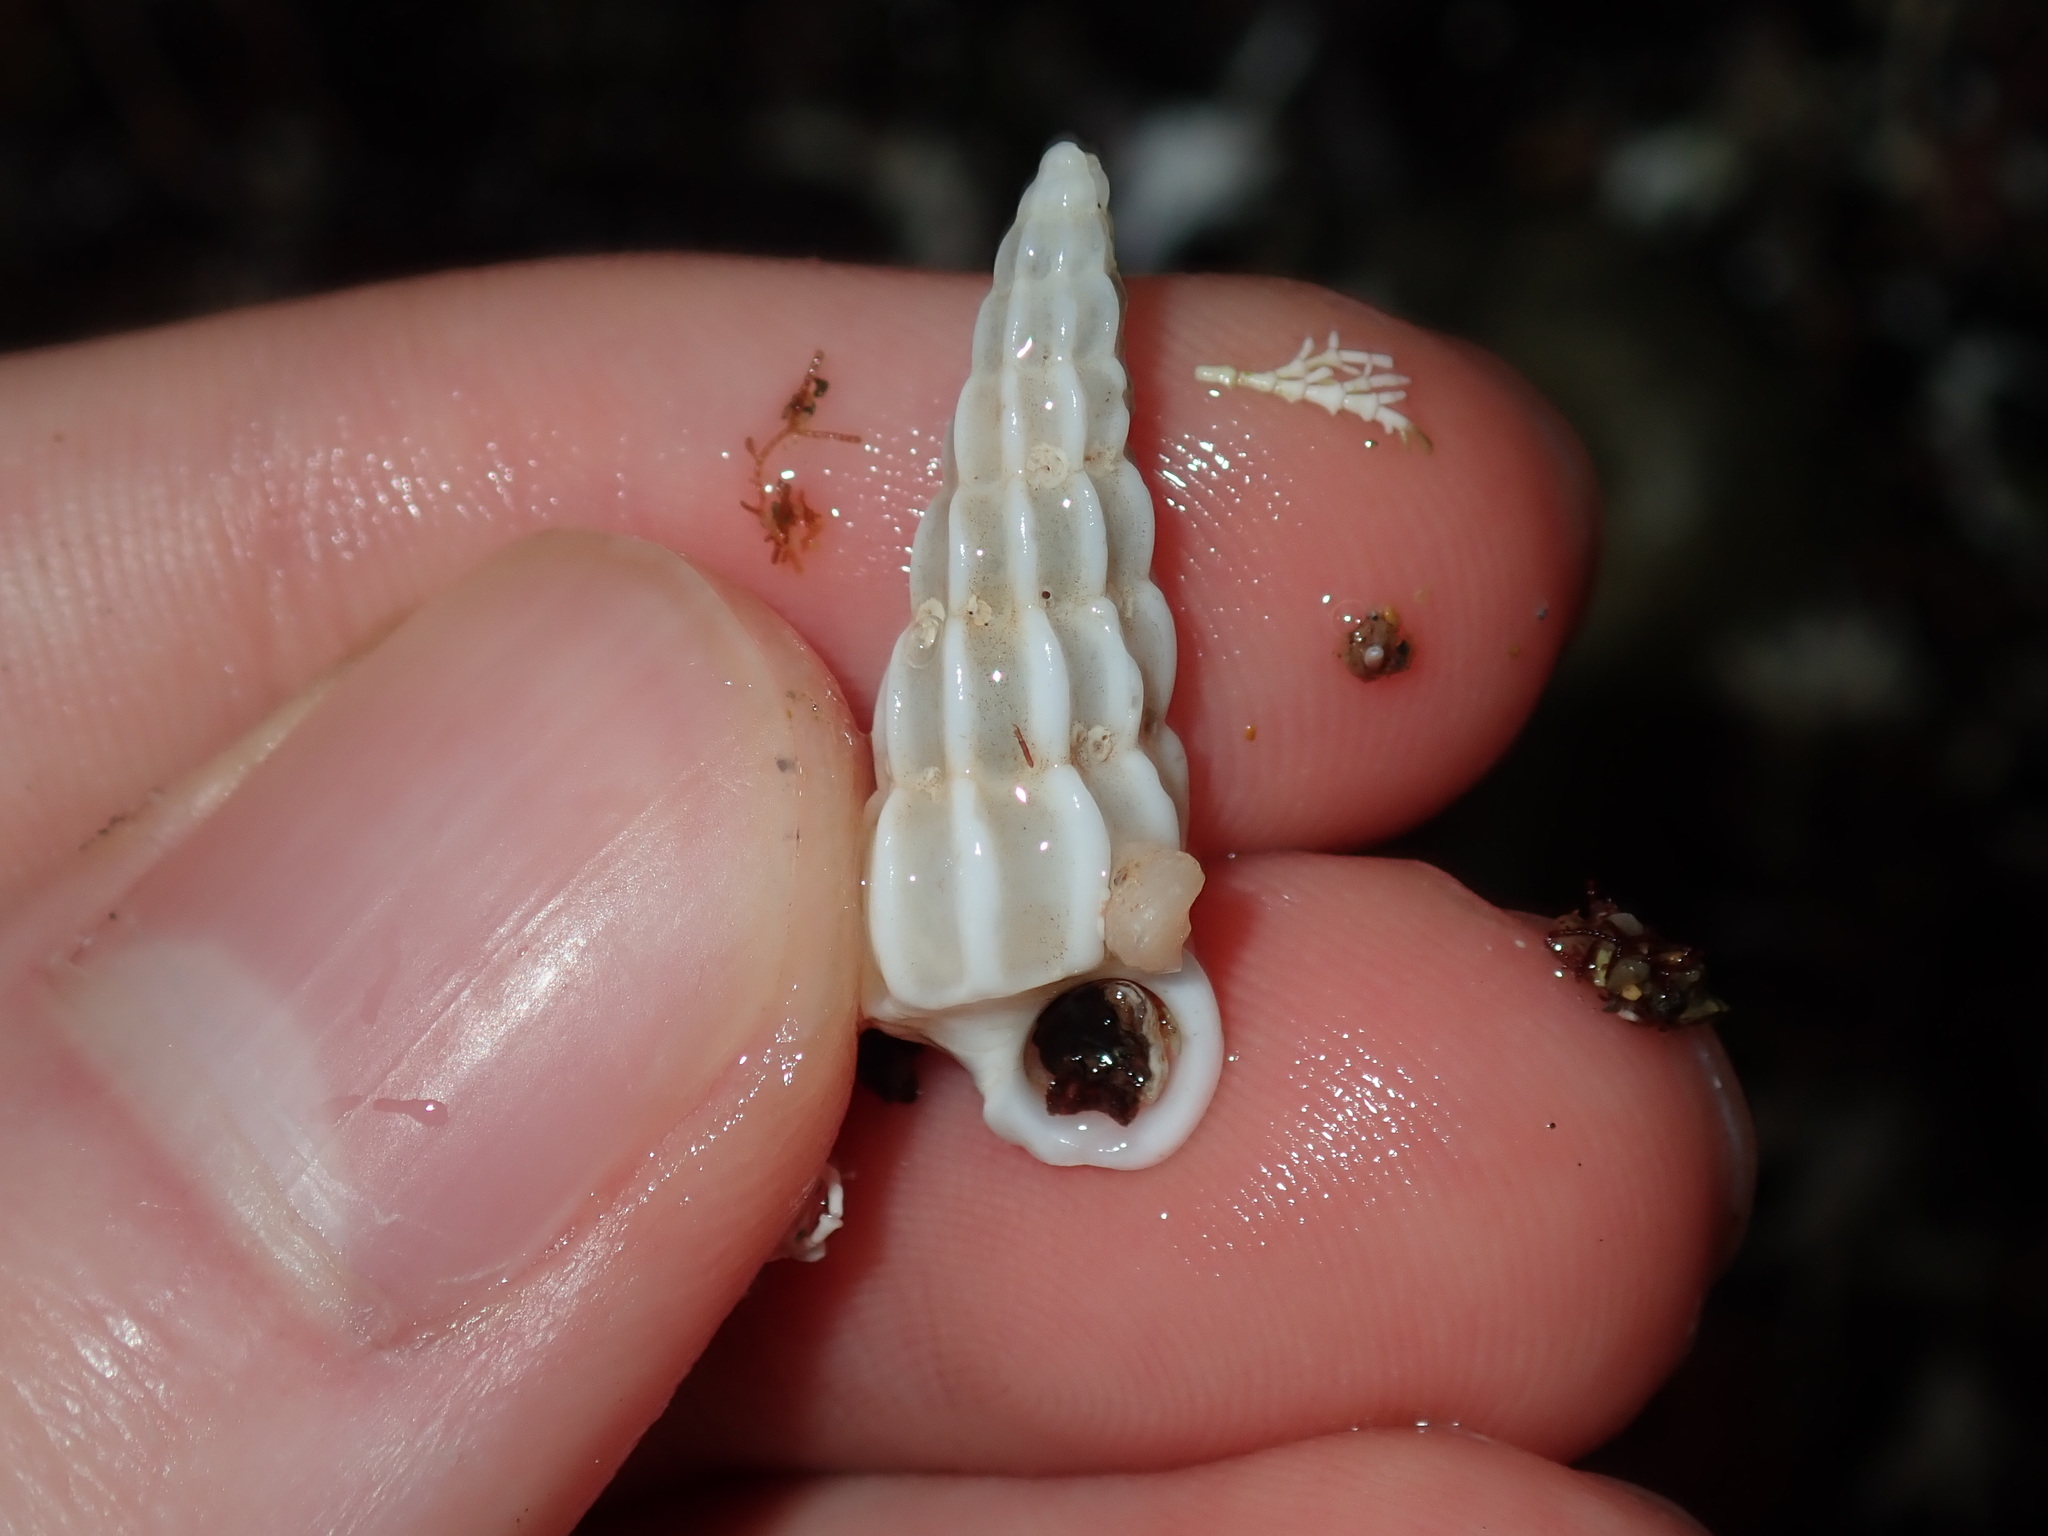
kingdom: Animalia
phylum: Mollusca
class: Gastropoda
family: Epitoniidae
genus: Opalia
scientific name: Opalia australis
